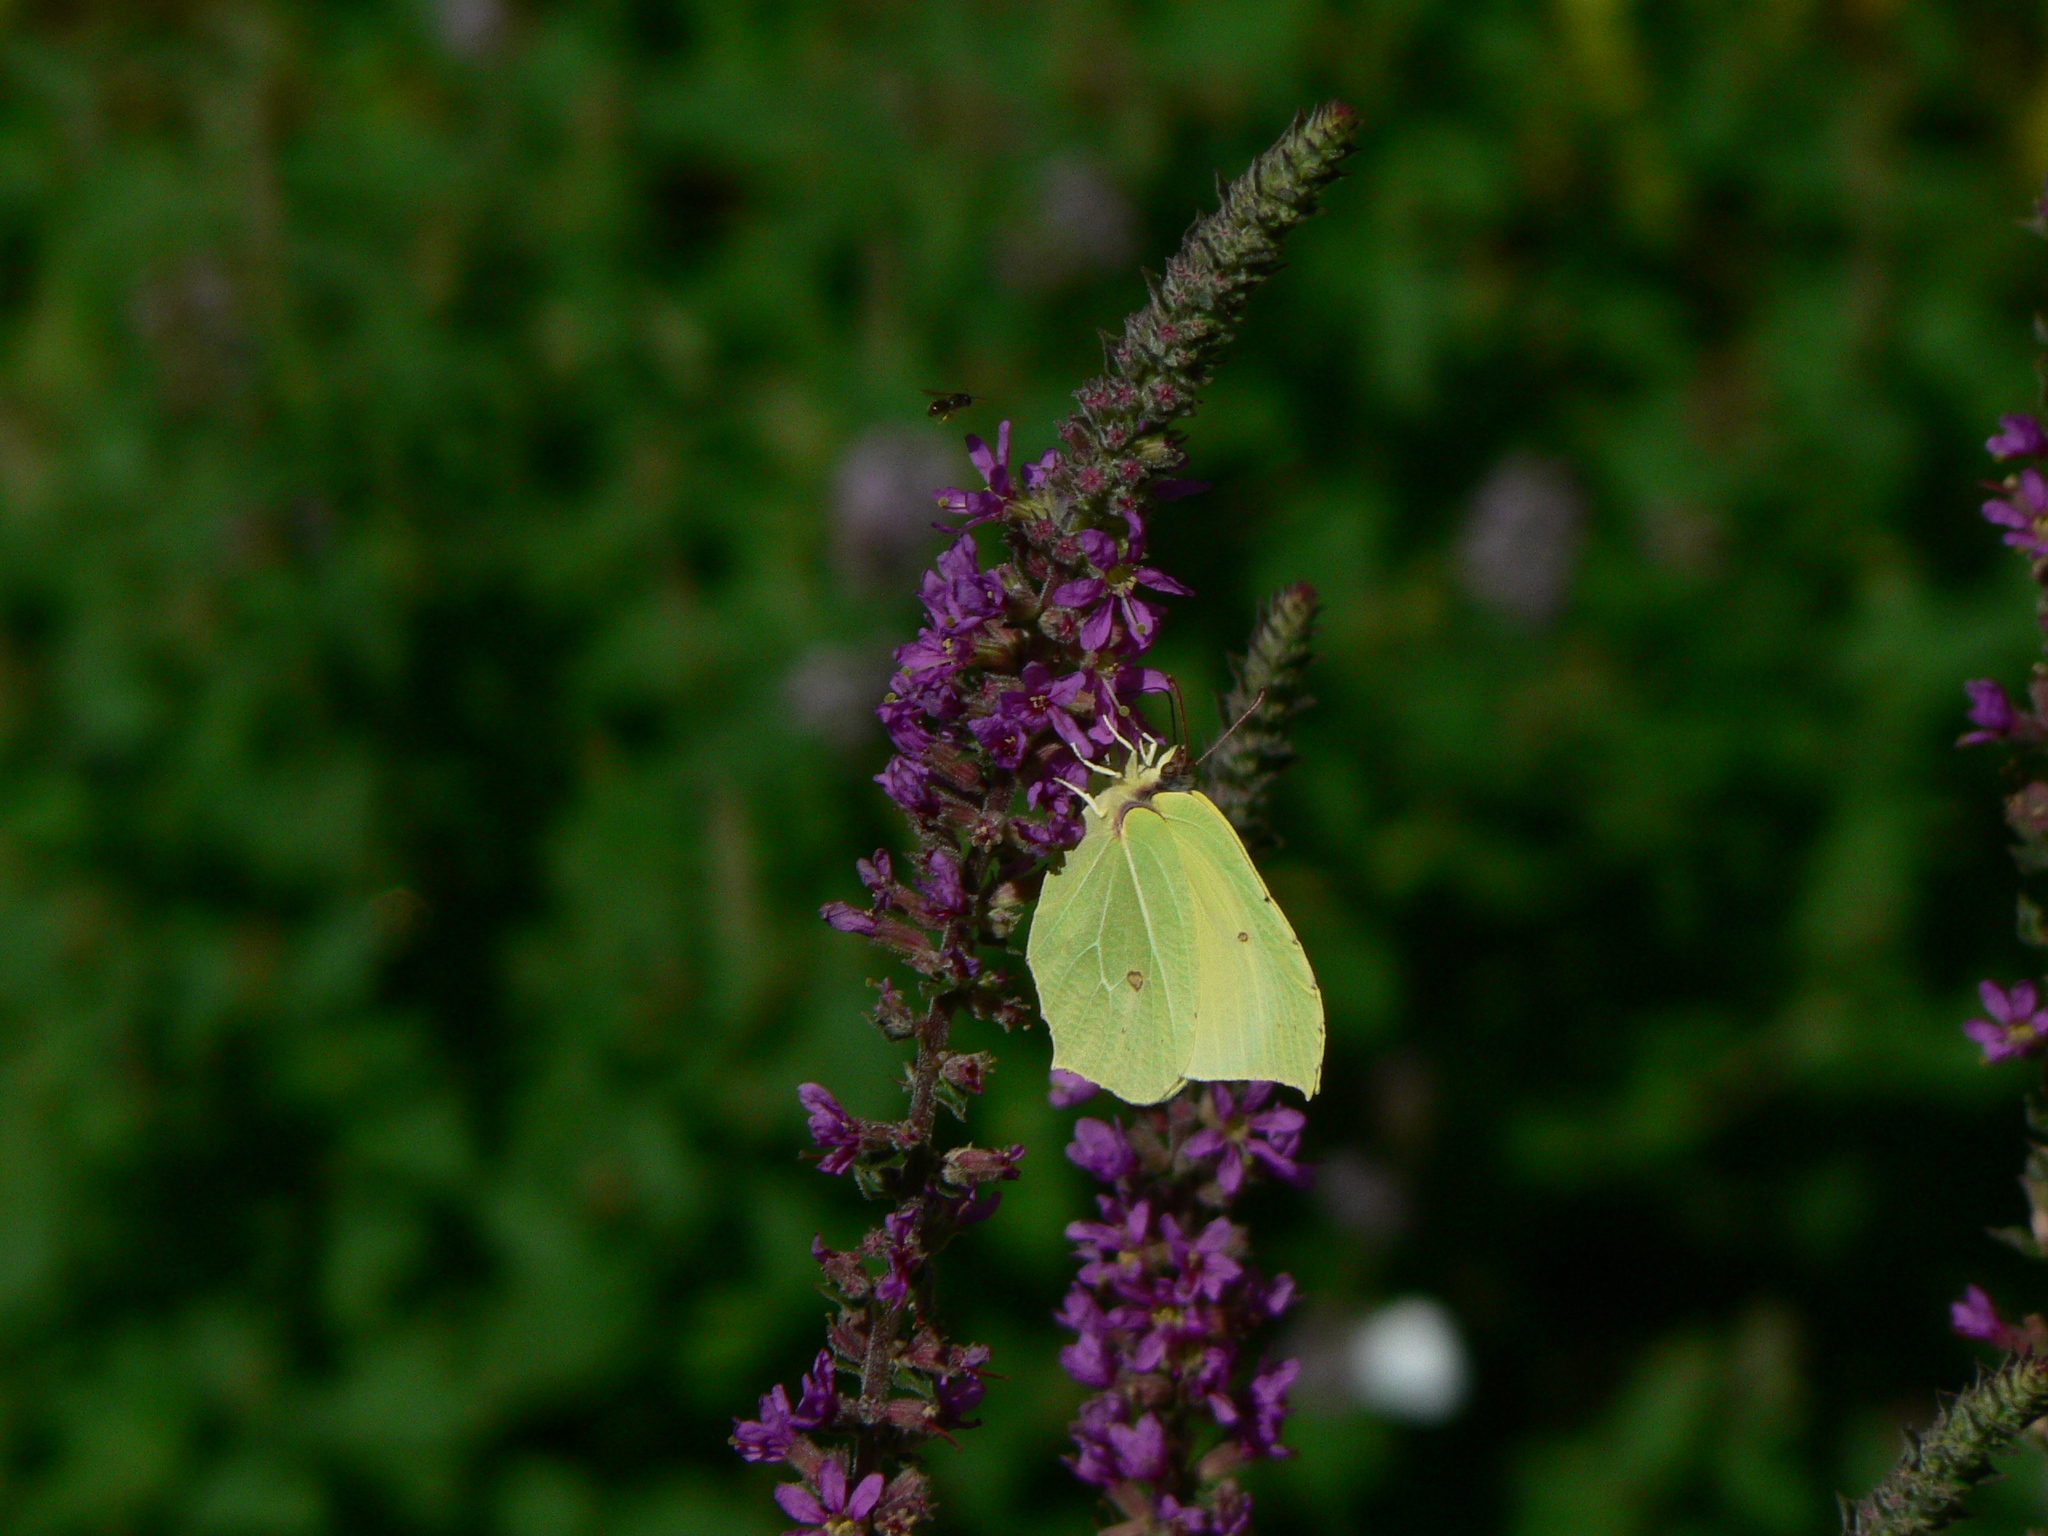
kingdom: Animalia
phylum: Arthropoda
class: Insecta
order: Lepidoptera
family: Pieridae
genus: Gonepteryx
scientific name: Gonepteryx rhamni
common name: Brimstone
